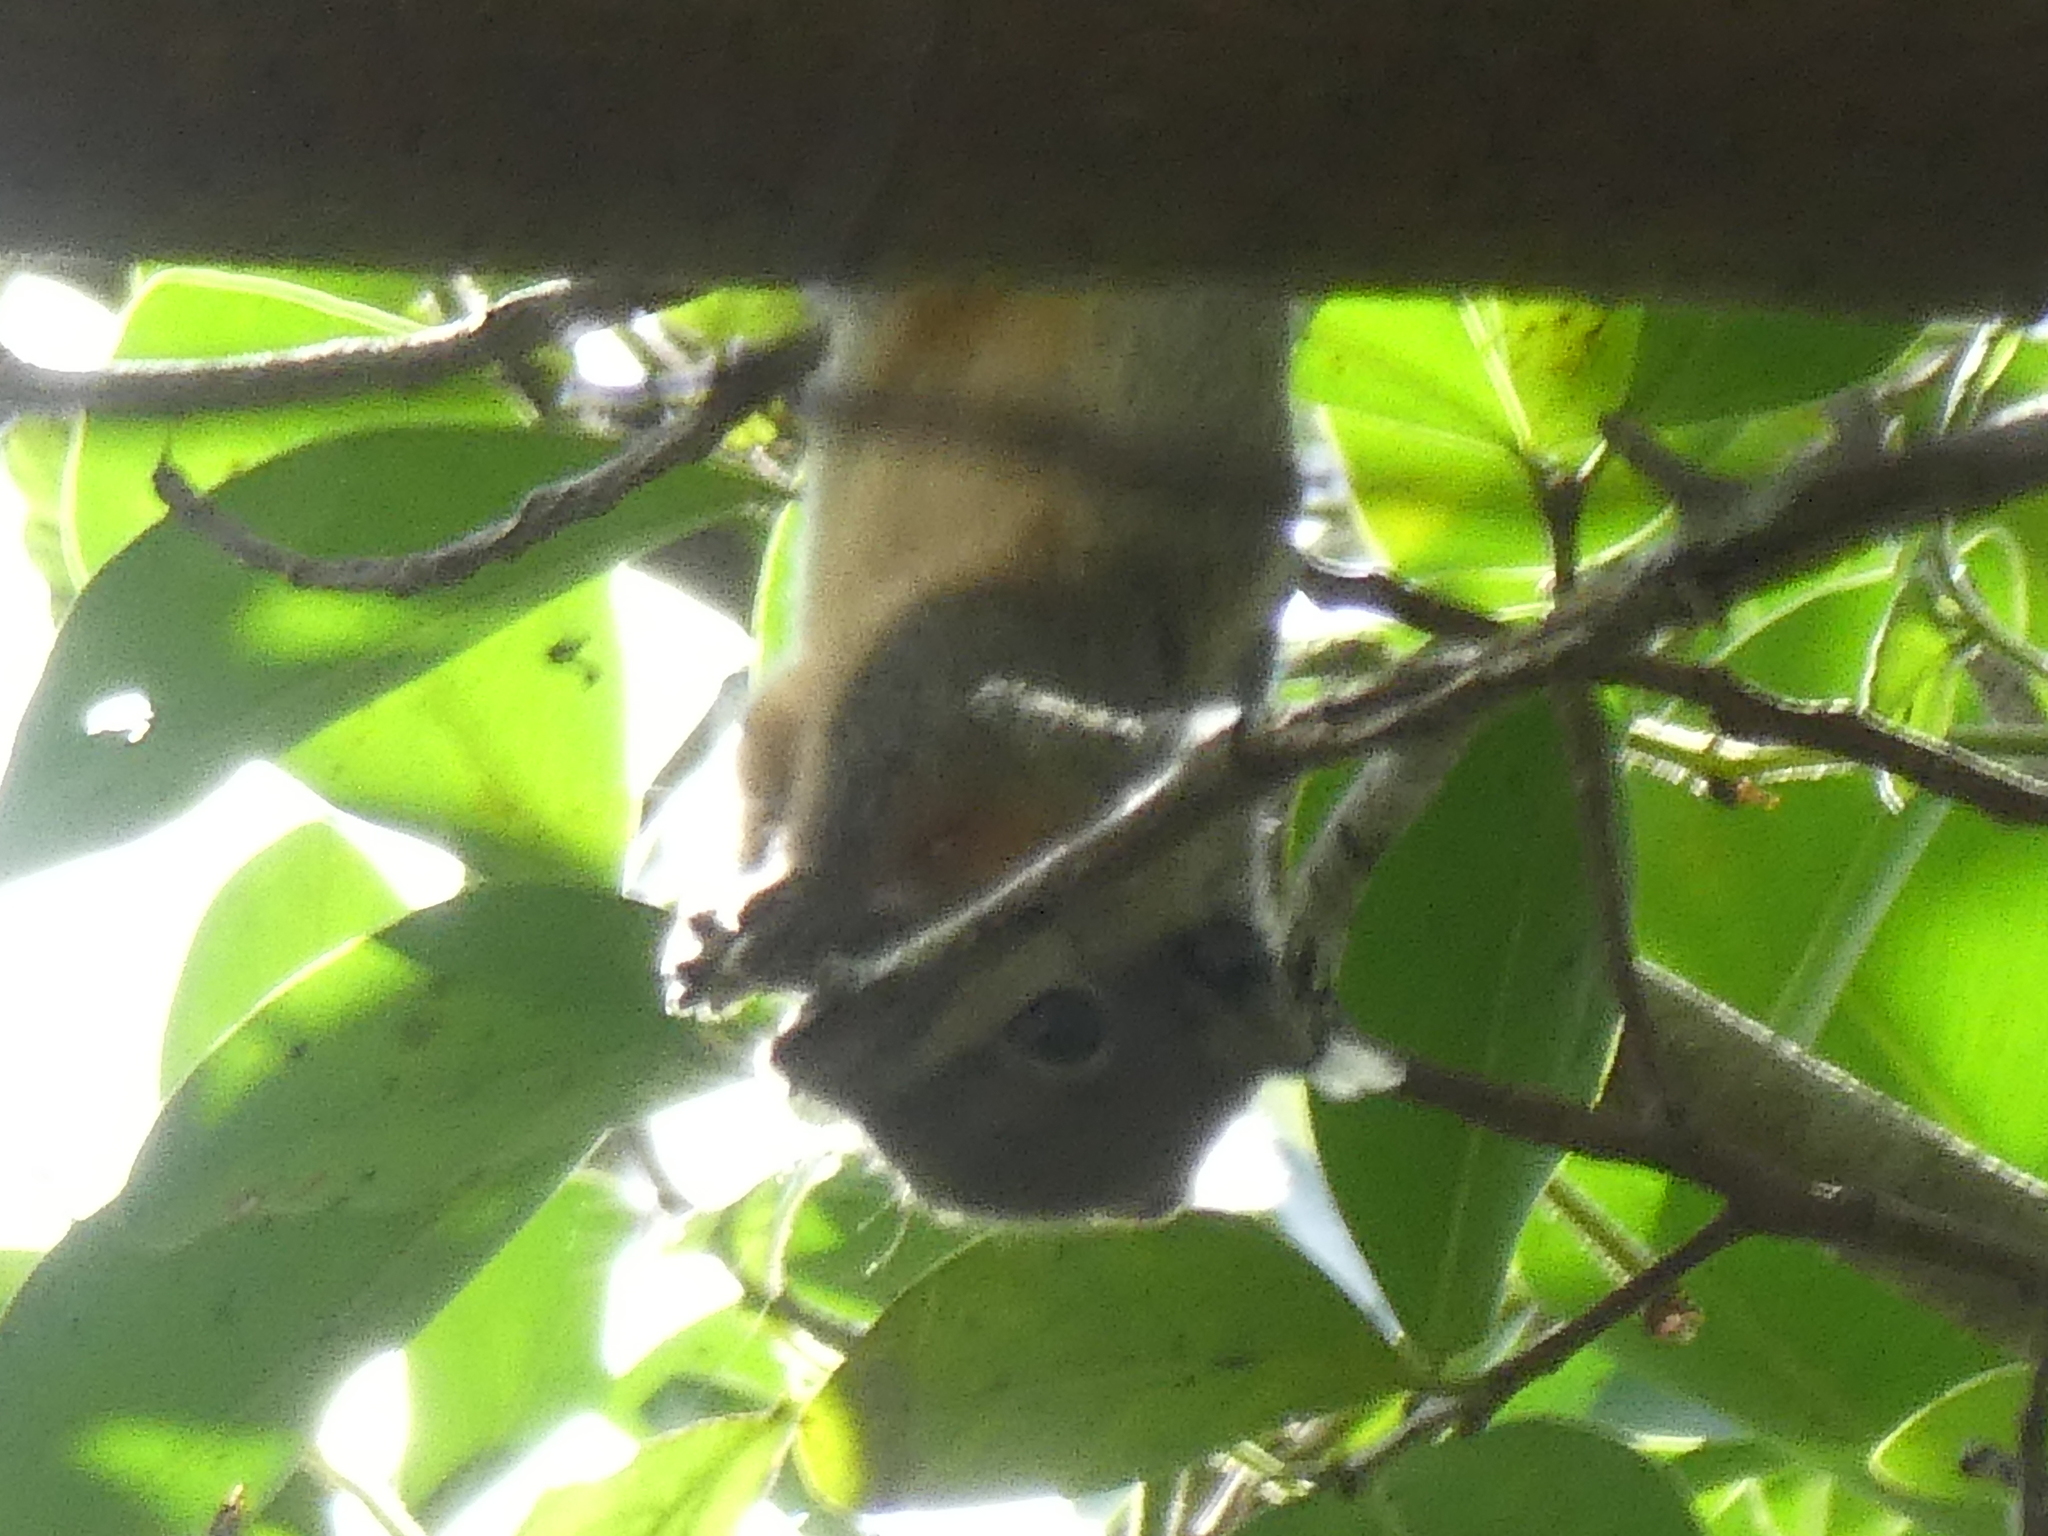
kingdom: Animalia
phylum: Chordata
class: Mammalia
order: Rodentia
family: Sciuridae
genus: Tamiops
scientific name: Tamiops rodolphii
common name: Cambodian striped squirrel
